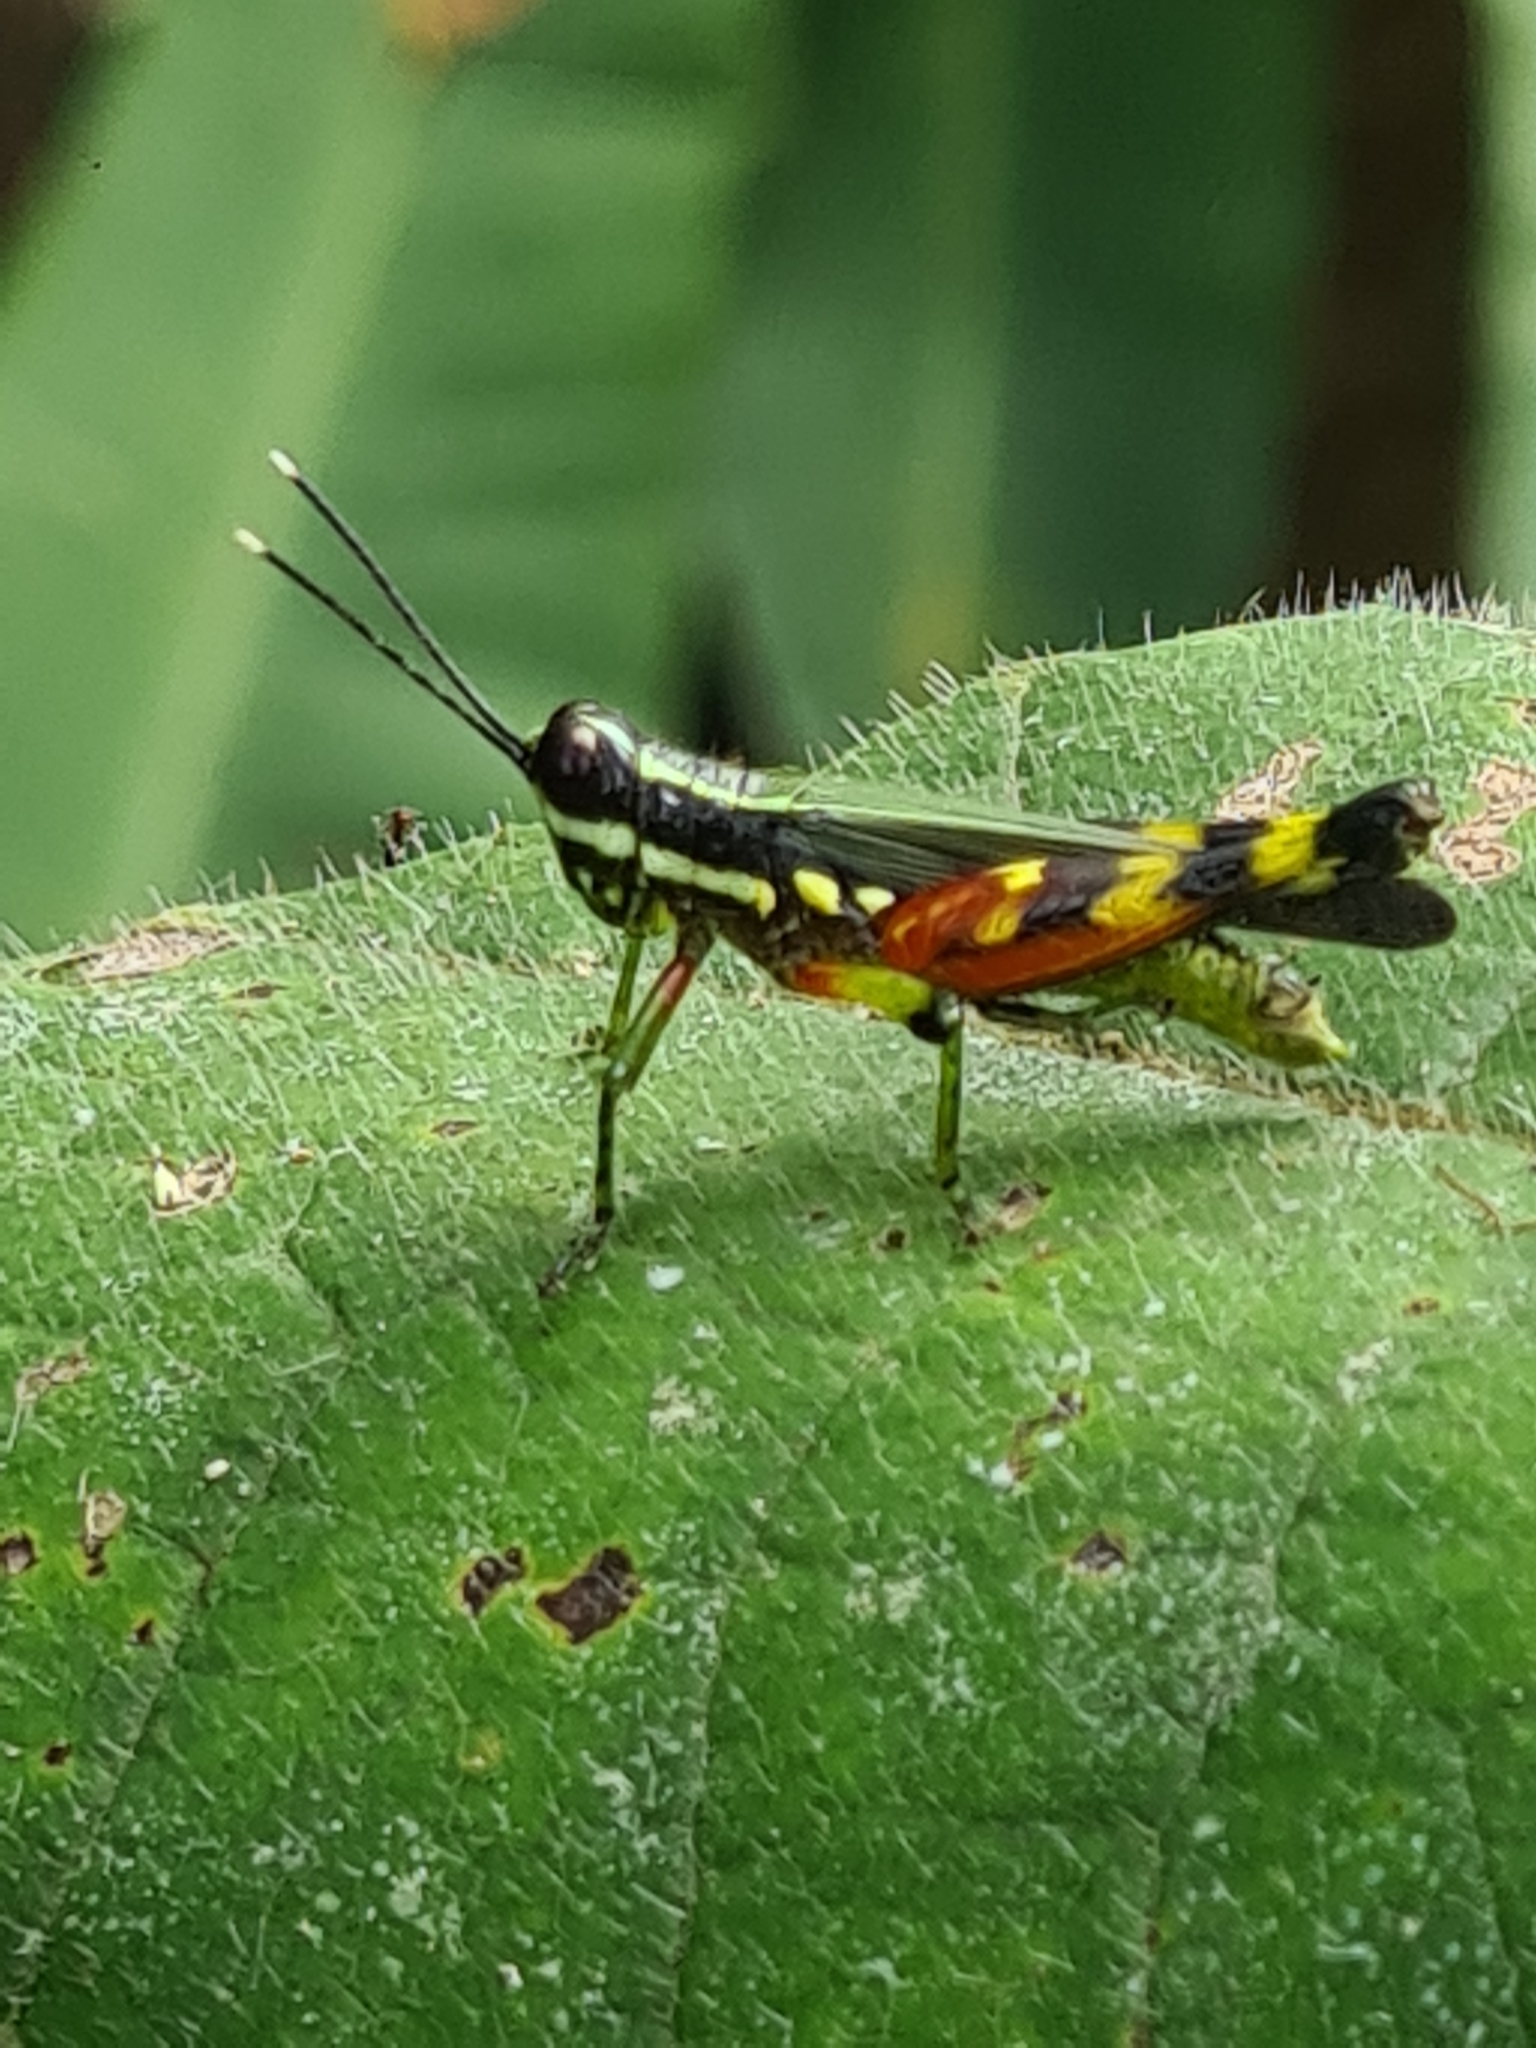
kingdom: Animalia
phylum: Arthropoda
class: Insecta
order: Orthoptera
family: Acrididae
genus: Tetrataenia
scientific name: Tetrataenia surinama
